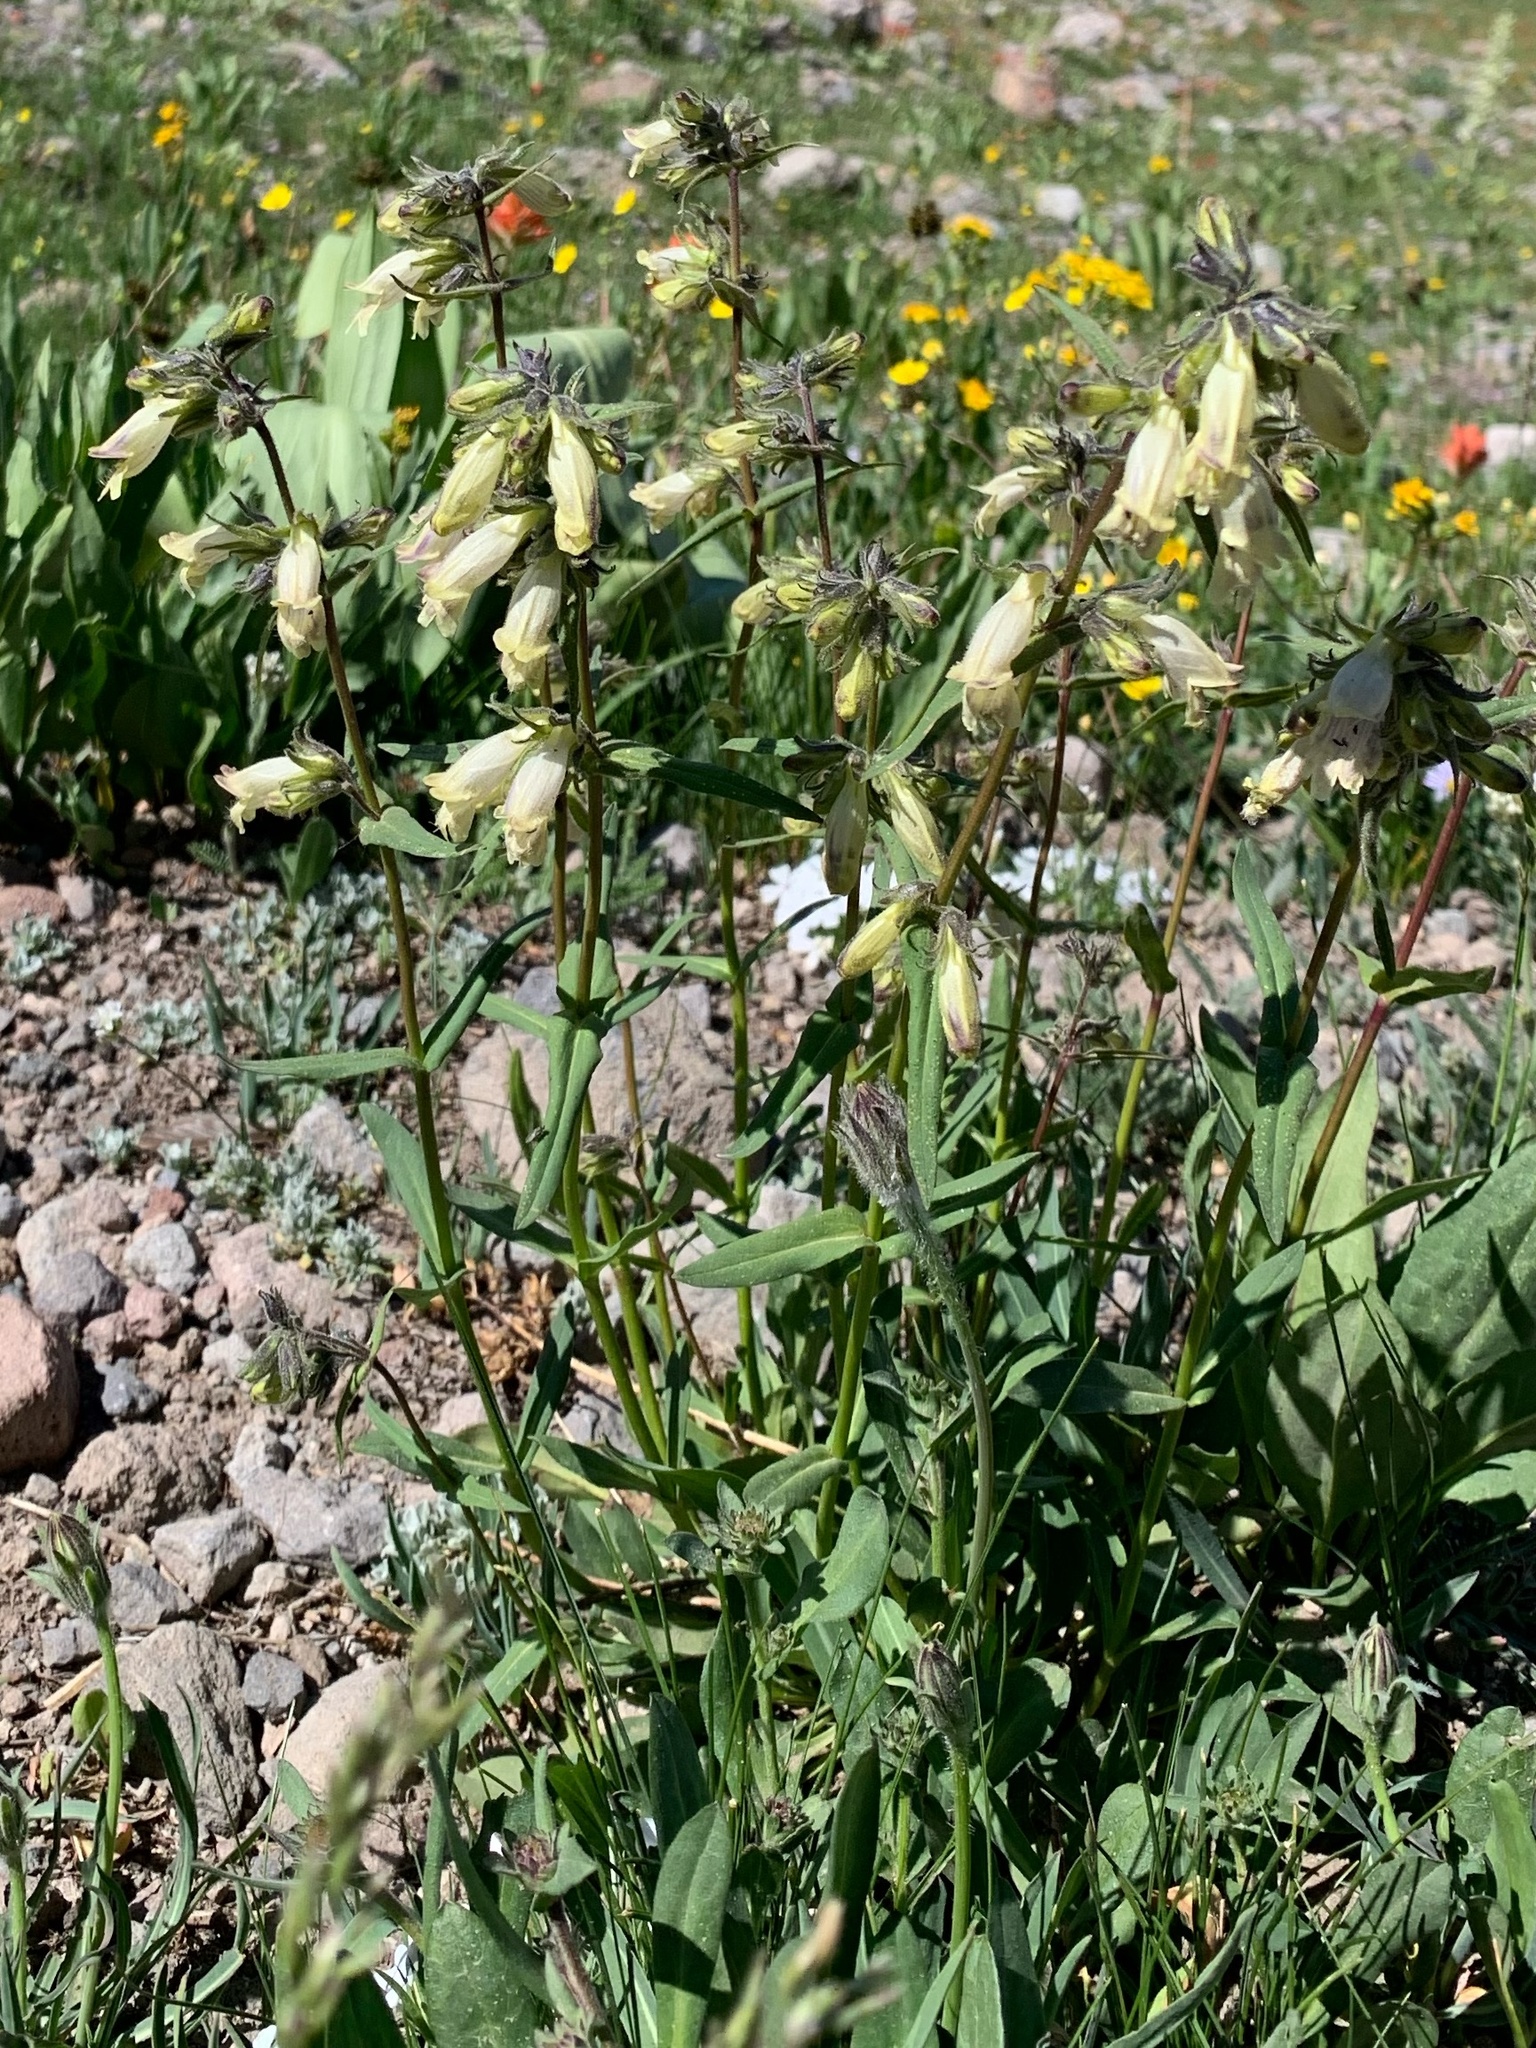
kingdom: Plantae
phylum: Tracheophyta
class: Magnoliopsida
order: Lamiales
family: Plantaginaceae
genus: Penstemon
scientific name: Penstemon whippleanus
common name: Whipple's penstemon
